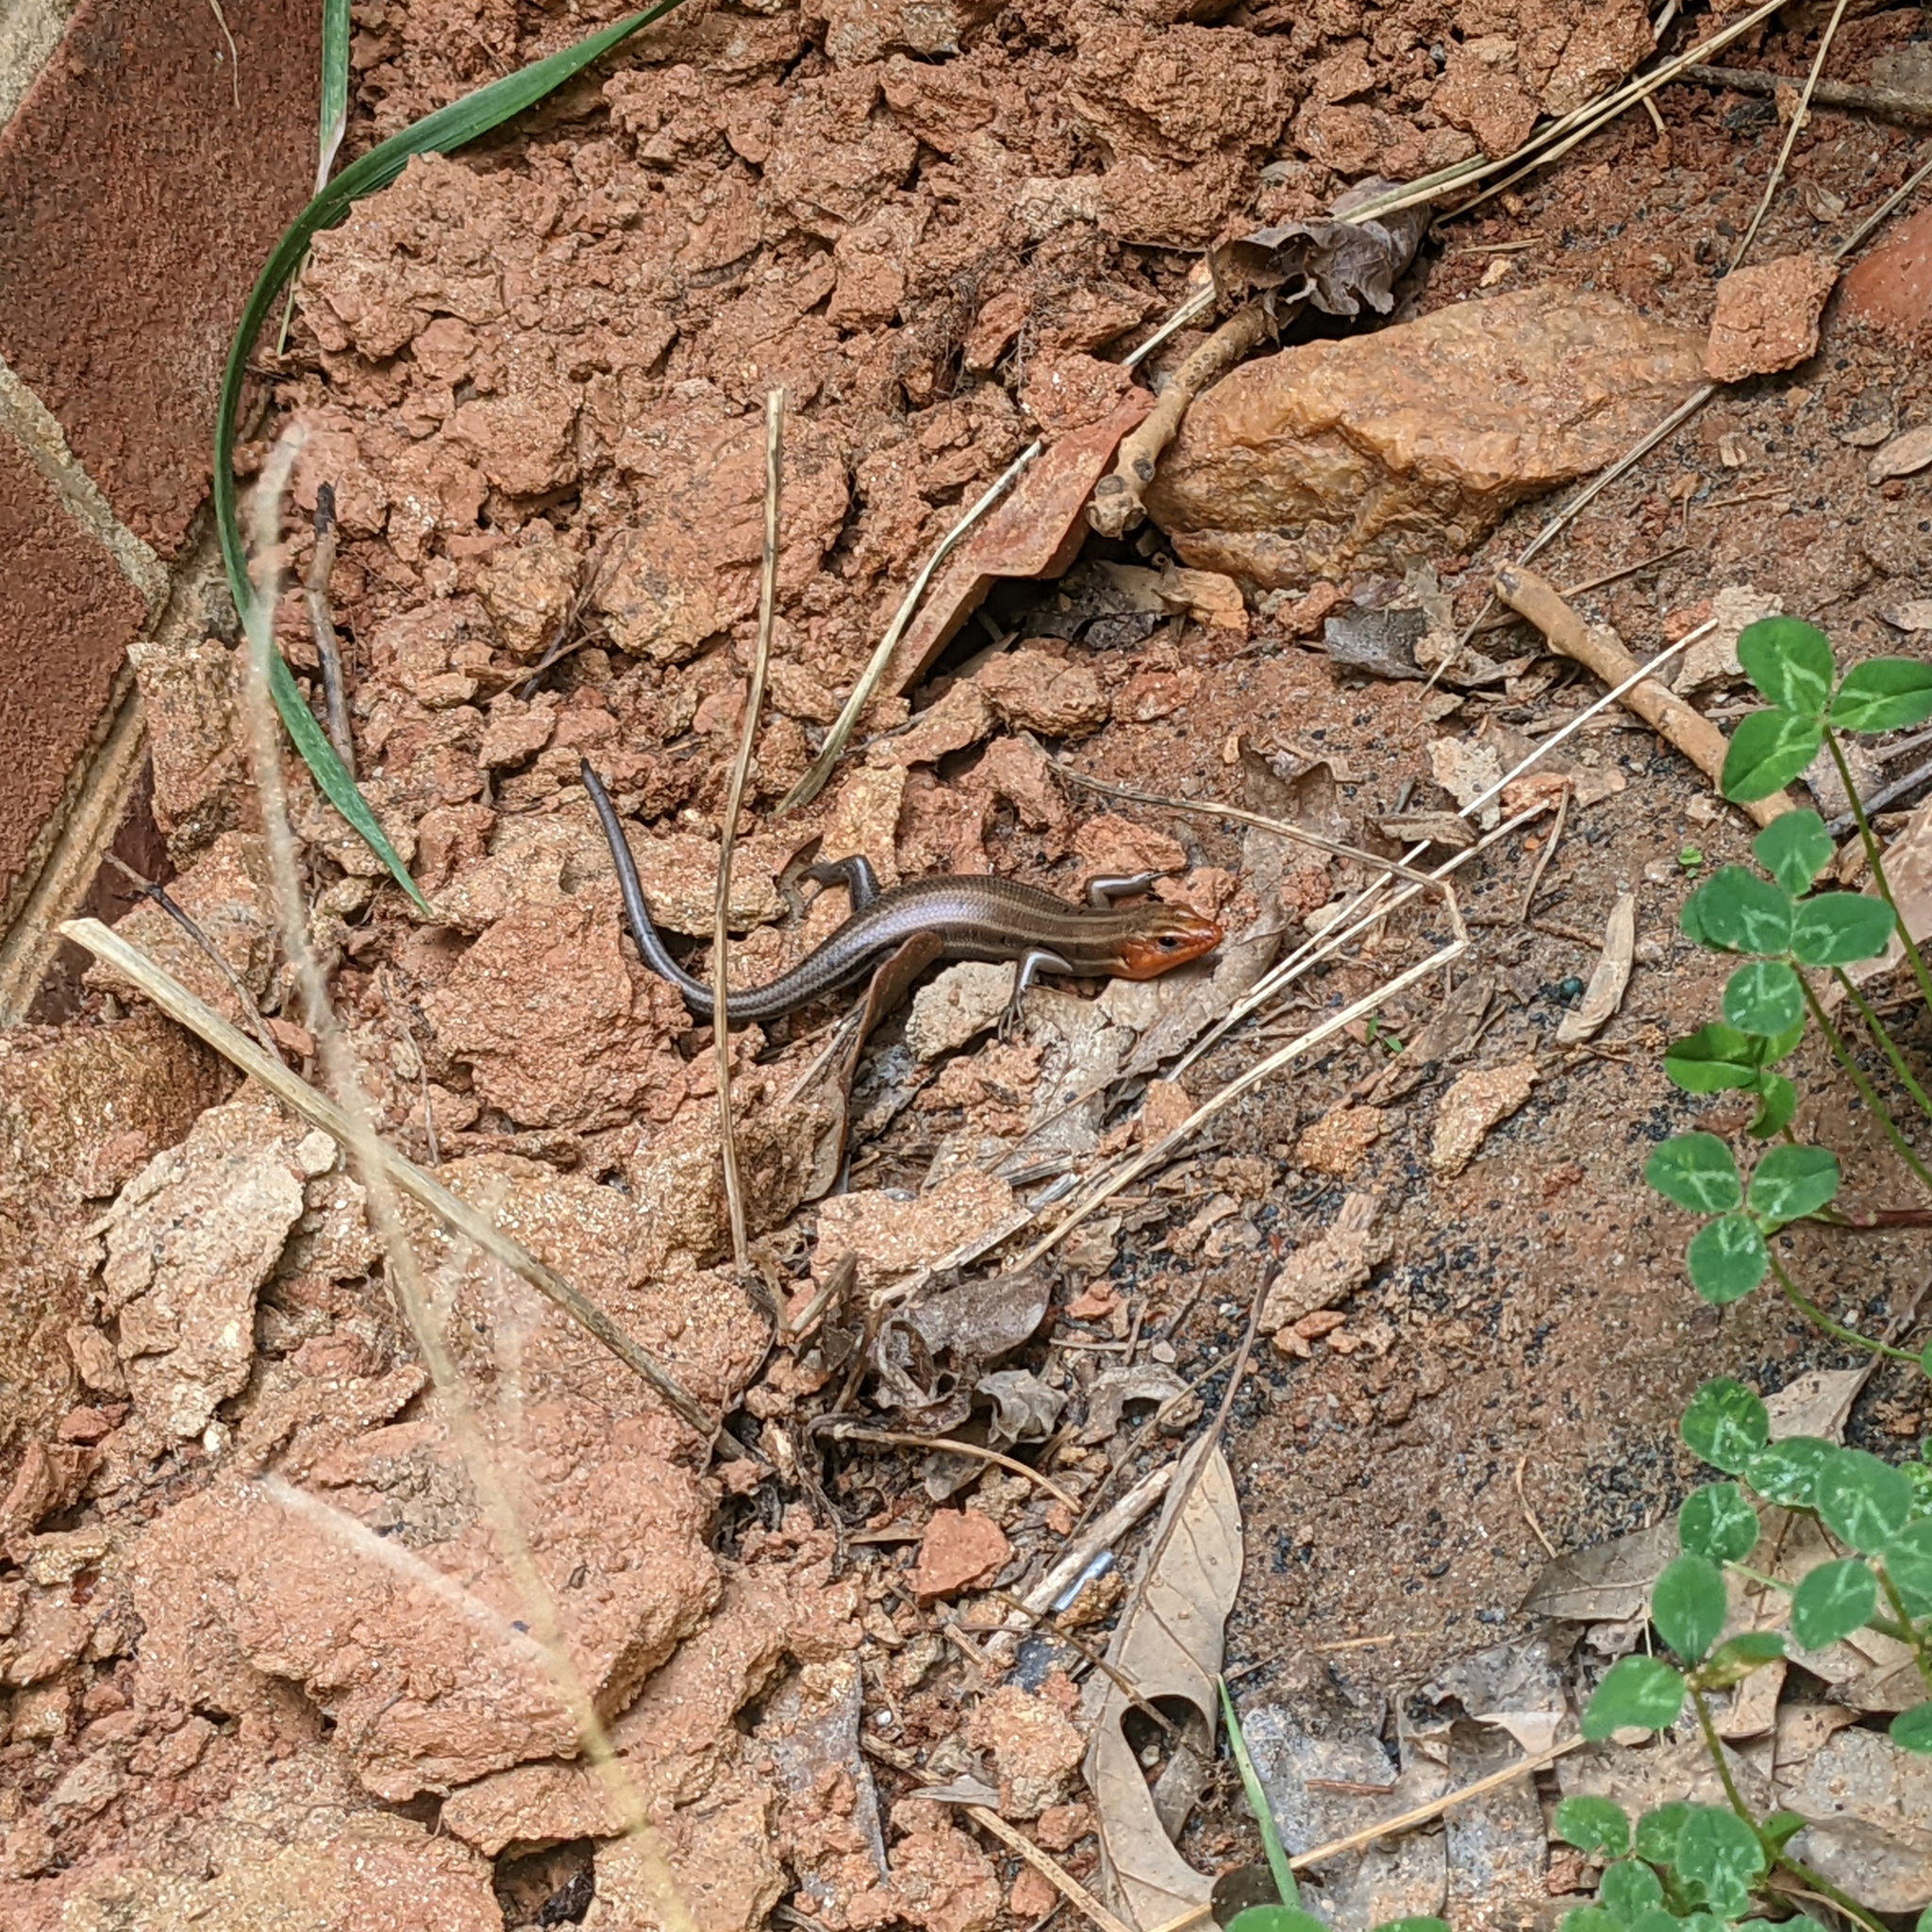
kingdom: Animalia
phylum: Chordata
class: Squamata
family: Scincidae
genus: Plestiodon
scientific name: Plestiodon fasciatus
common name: Five-lined skink
